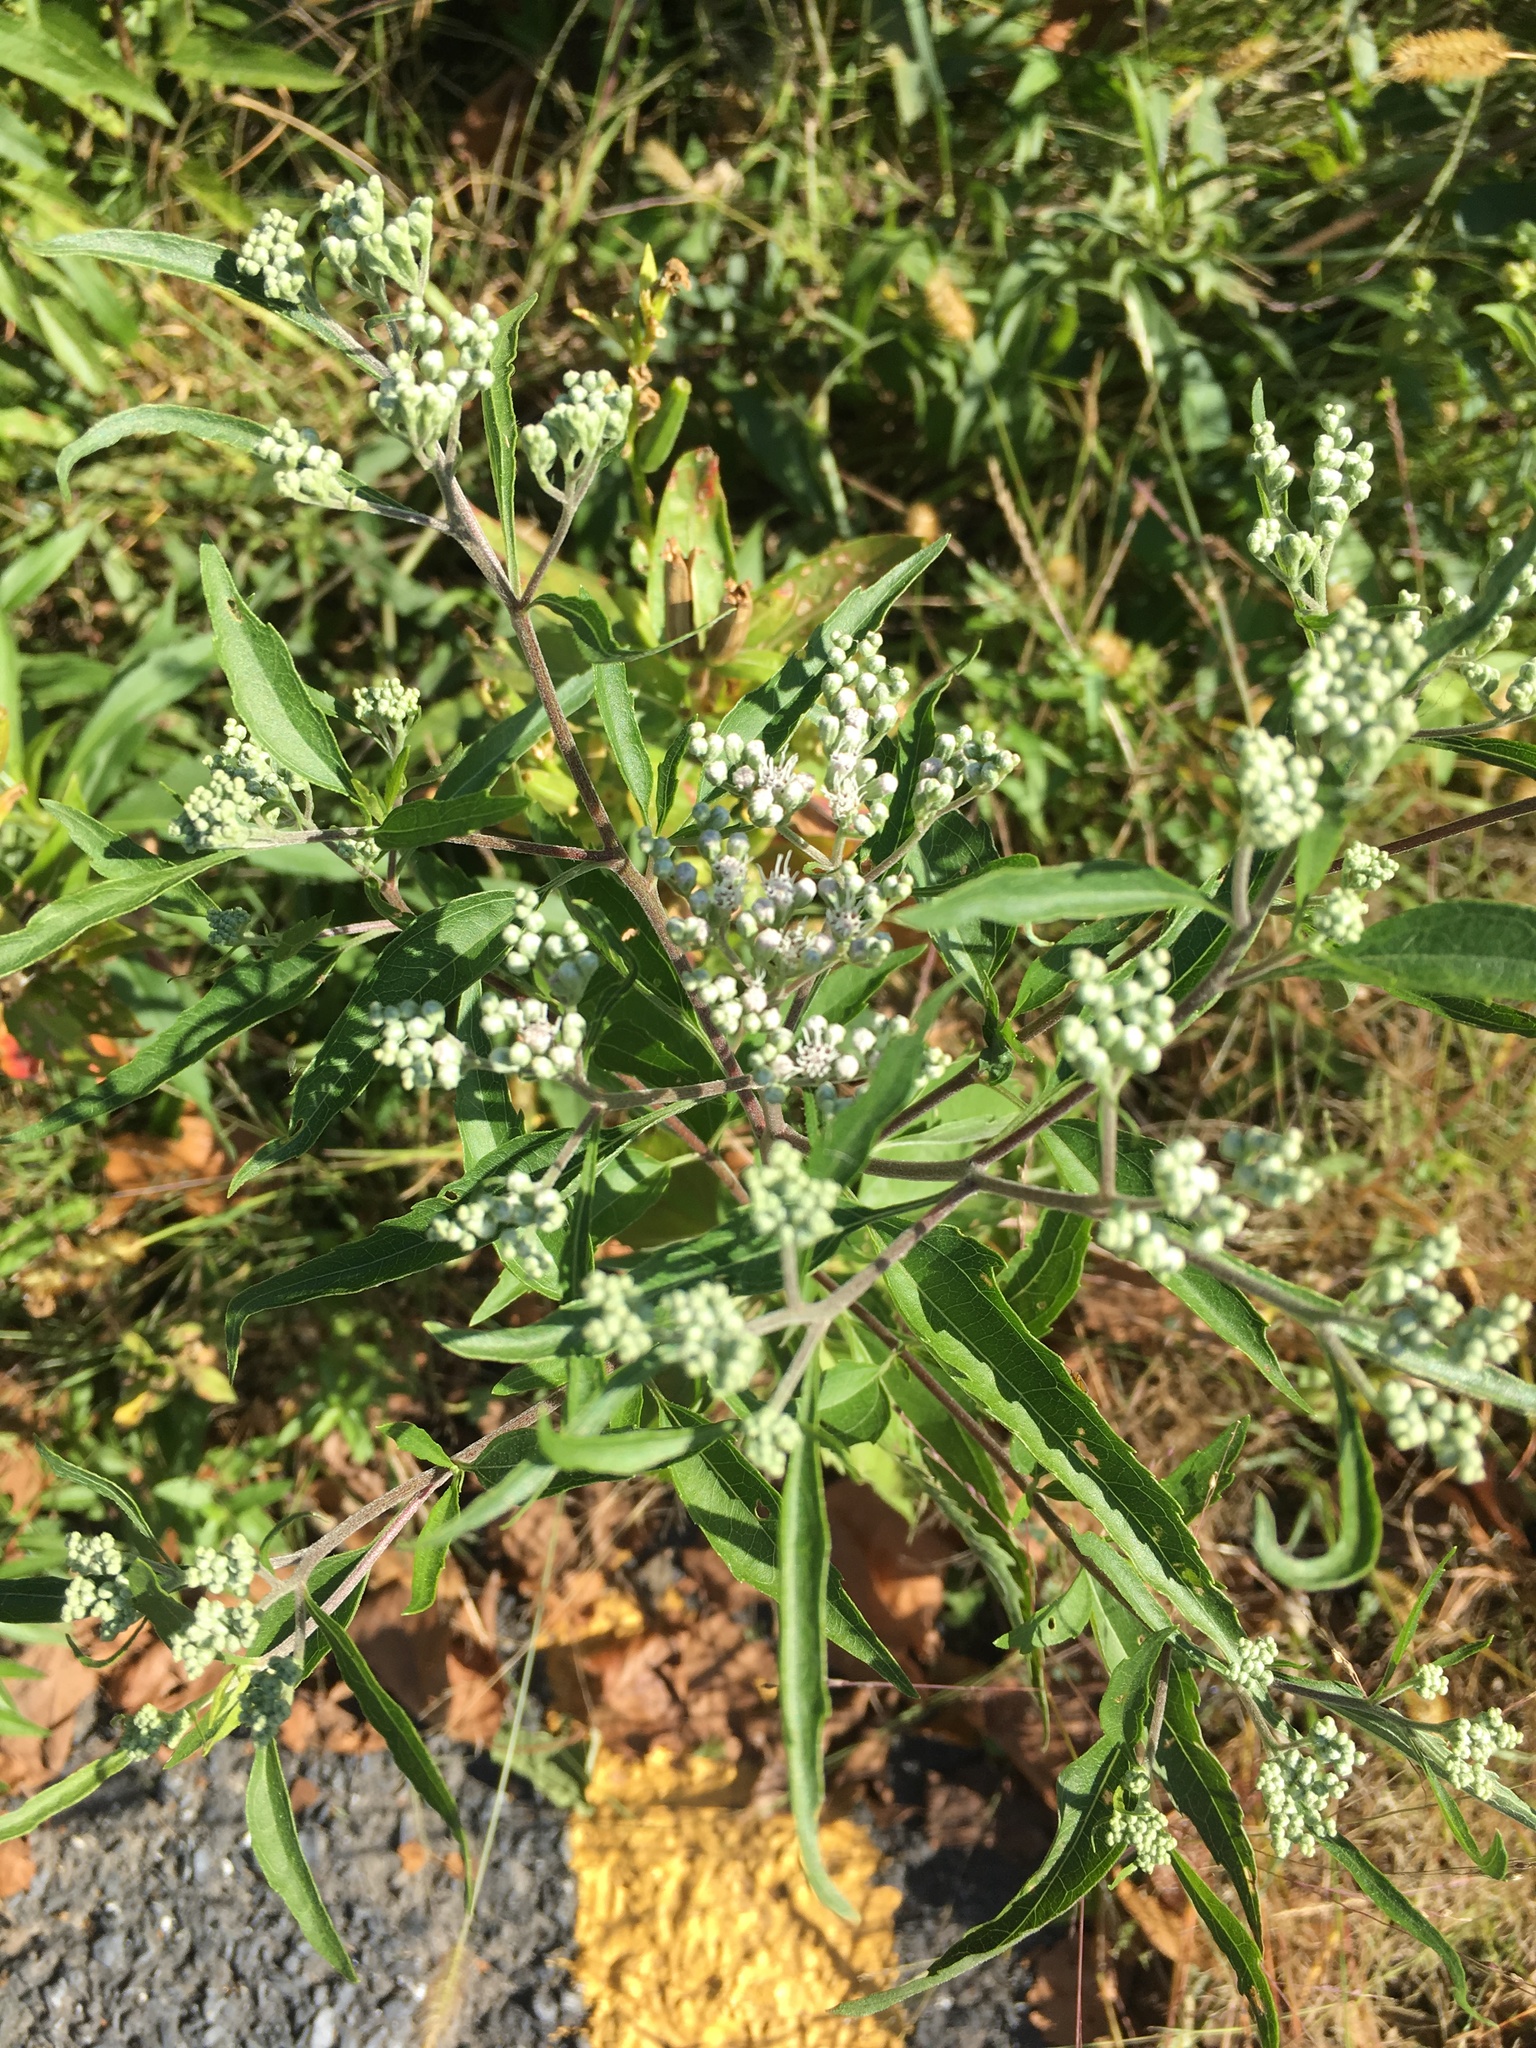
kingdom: Plantae
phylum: Tracheophyta
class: Magnoliopsida
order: Asterales
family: Asteraceae
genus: Eupatorium
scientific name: Eupatorium serotinum
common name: Late boneset
